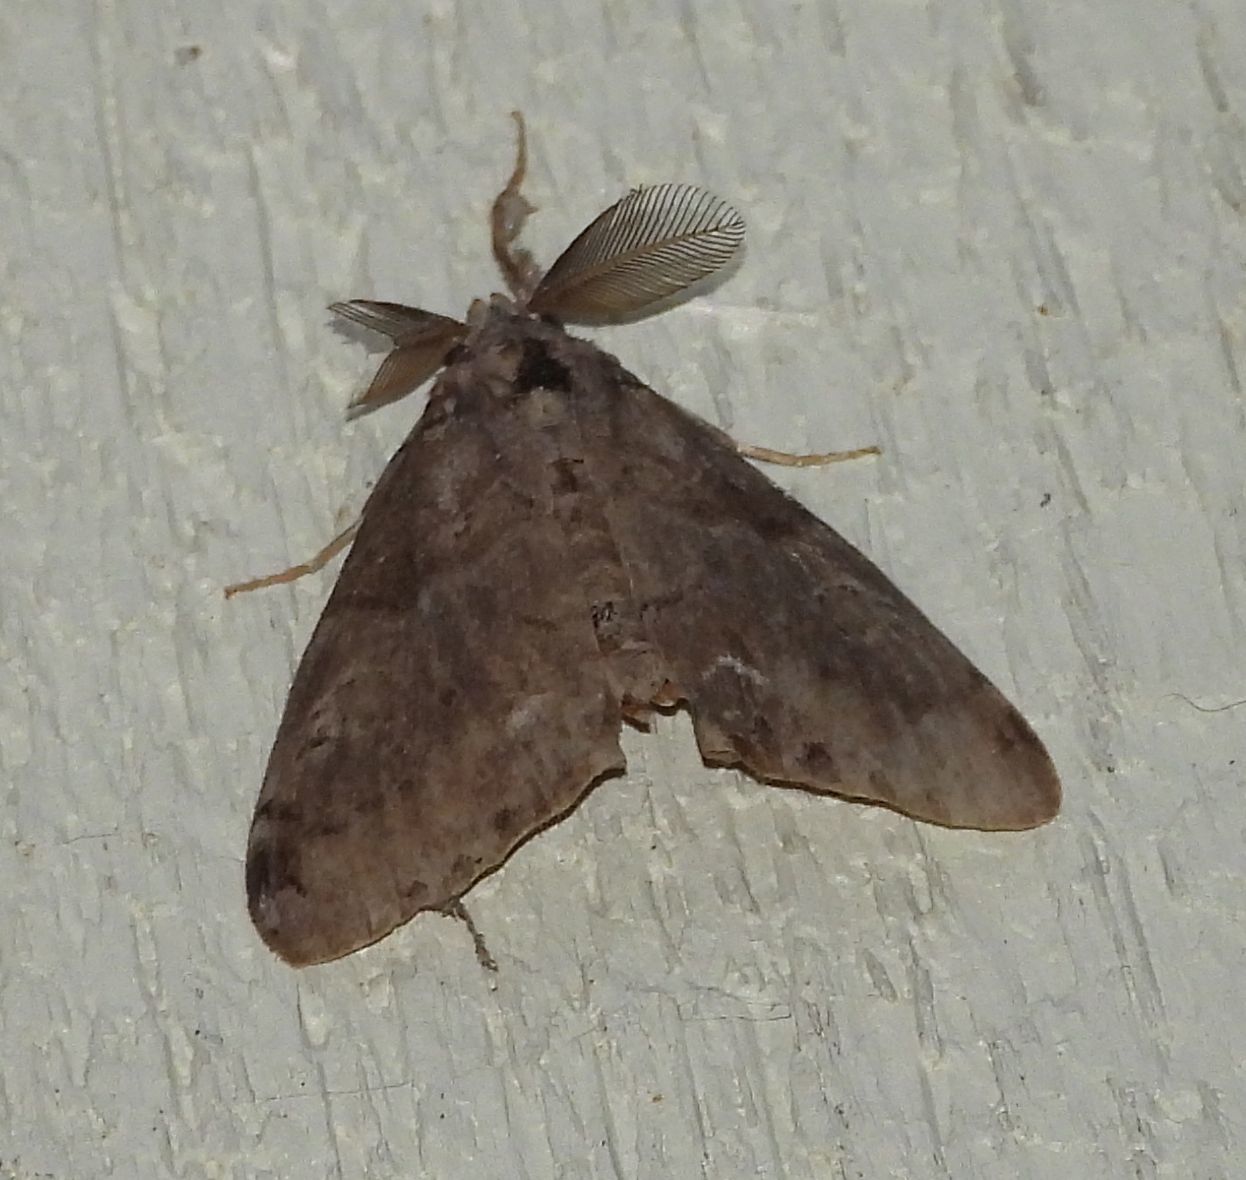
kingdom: Animalia
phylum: Arthropoda
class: Insecta
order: Lepidoptera
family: Erebidae
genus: Orgyia
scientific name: Orgyia leucostigma
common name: White-marked tussock moth
